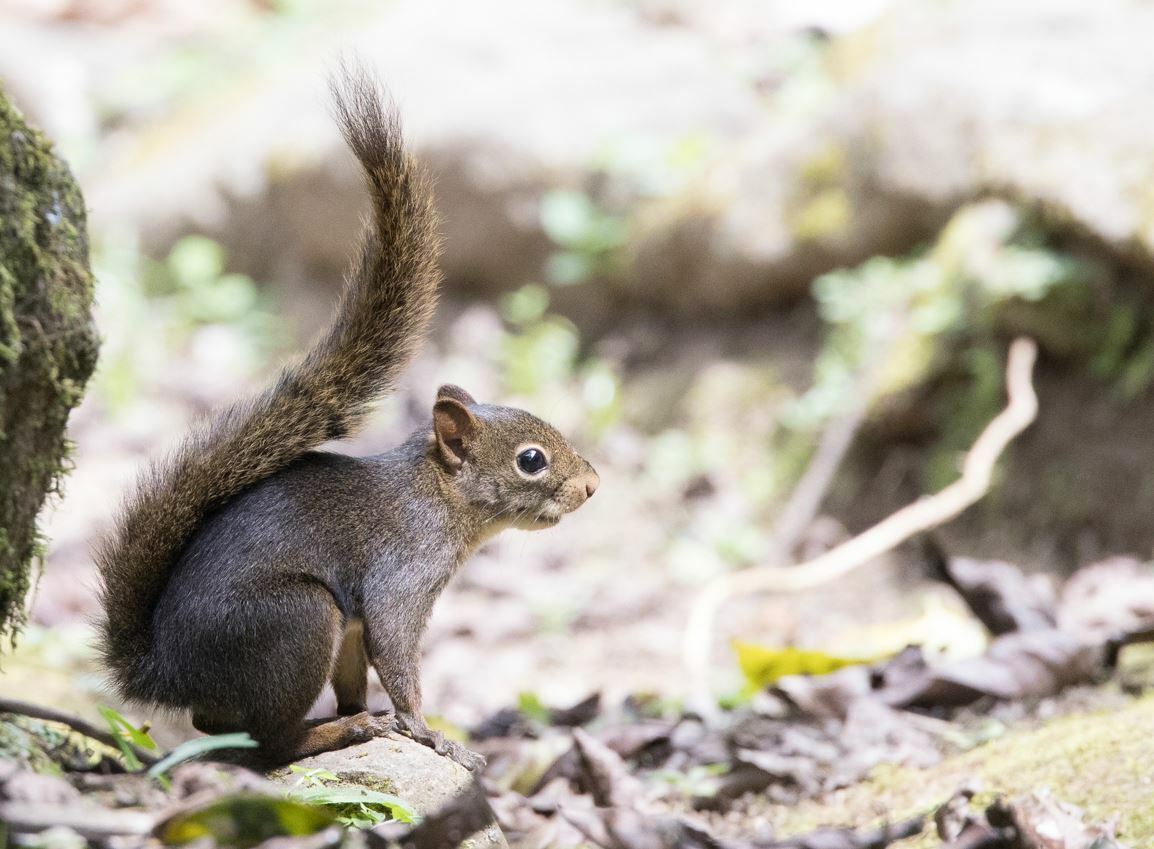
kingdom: Animalia
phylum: Chordata
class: Mammalia
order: Rodentia
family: Sciuridae
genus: Sciurus
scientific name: Sciurus ignitus
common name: Bolivian squirrel
